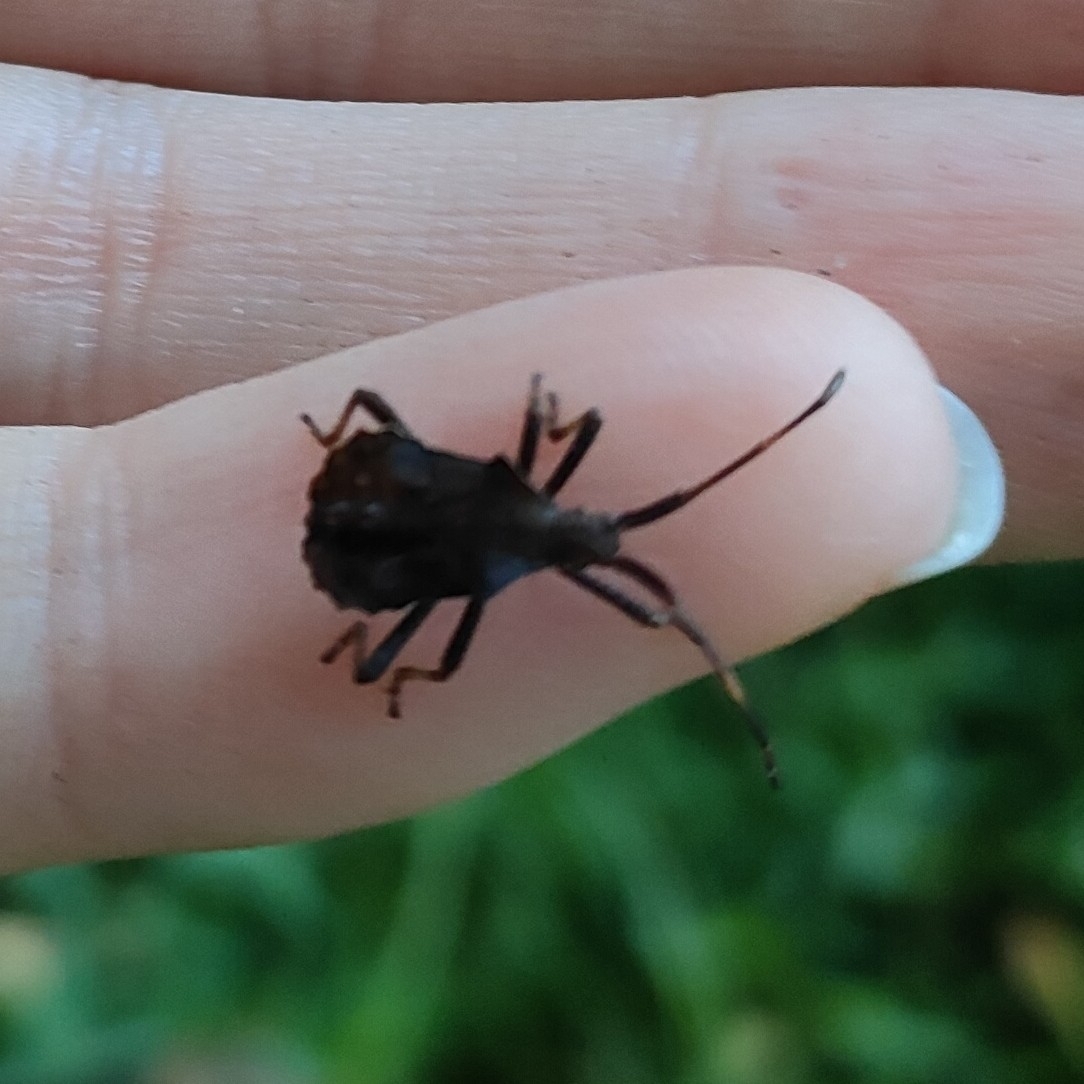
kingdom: Animalia
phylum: Arthropoda
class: Insecta
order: Hemiptera
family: Coreidae
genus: Coreus
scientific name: Coreus marginatus
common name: Dock bug
